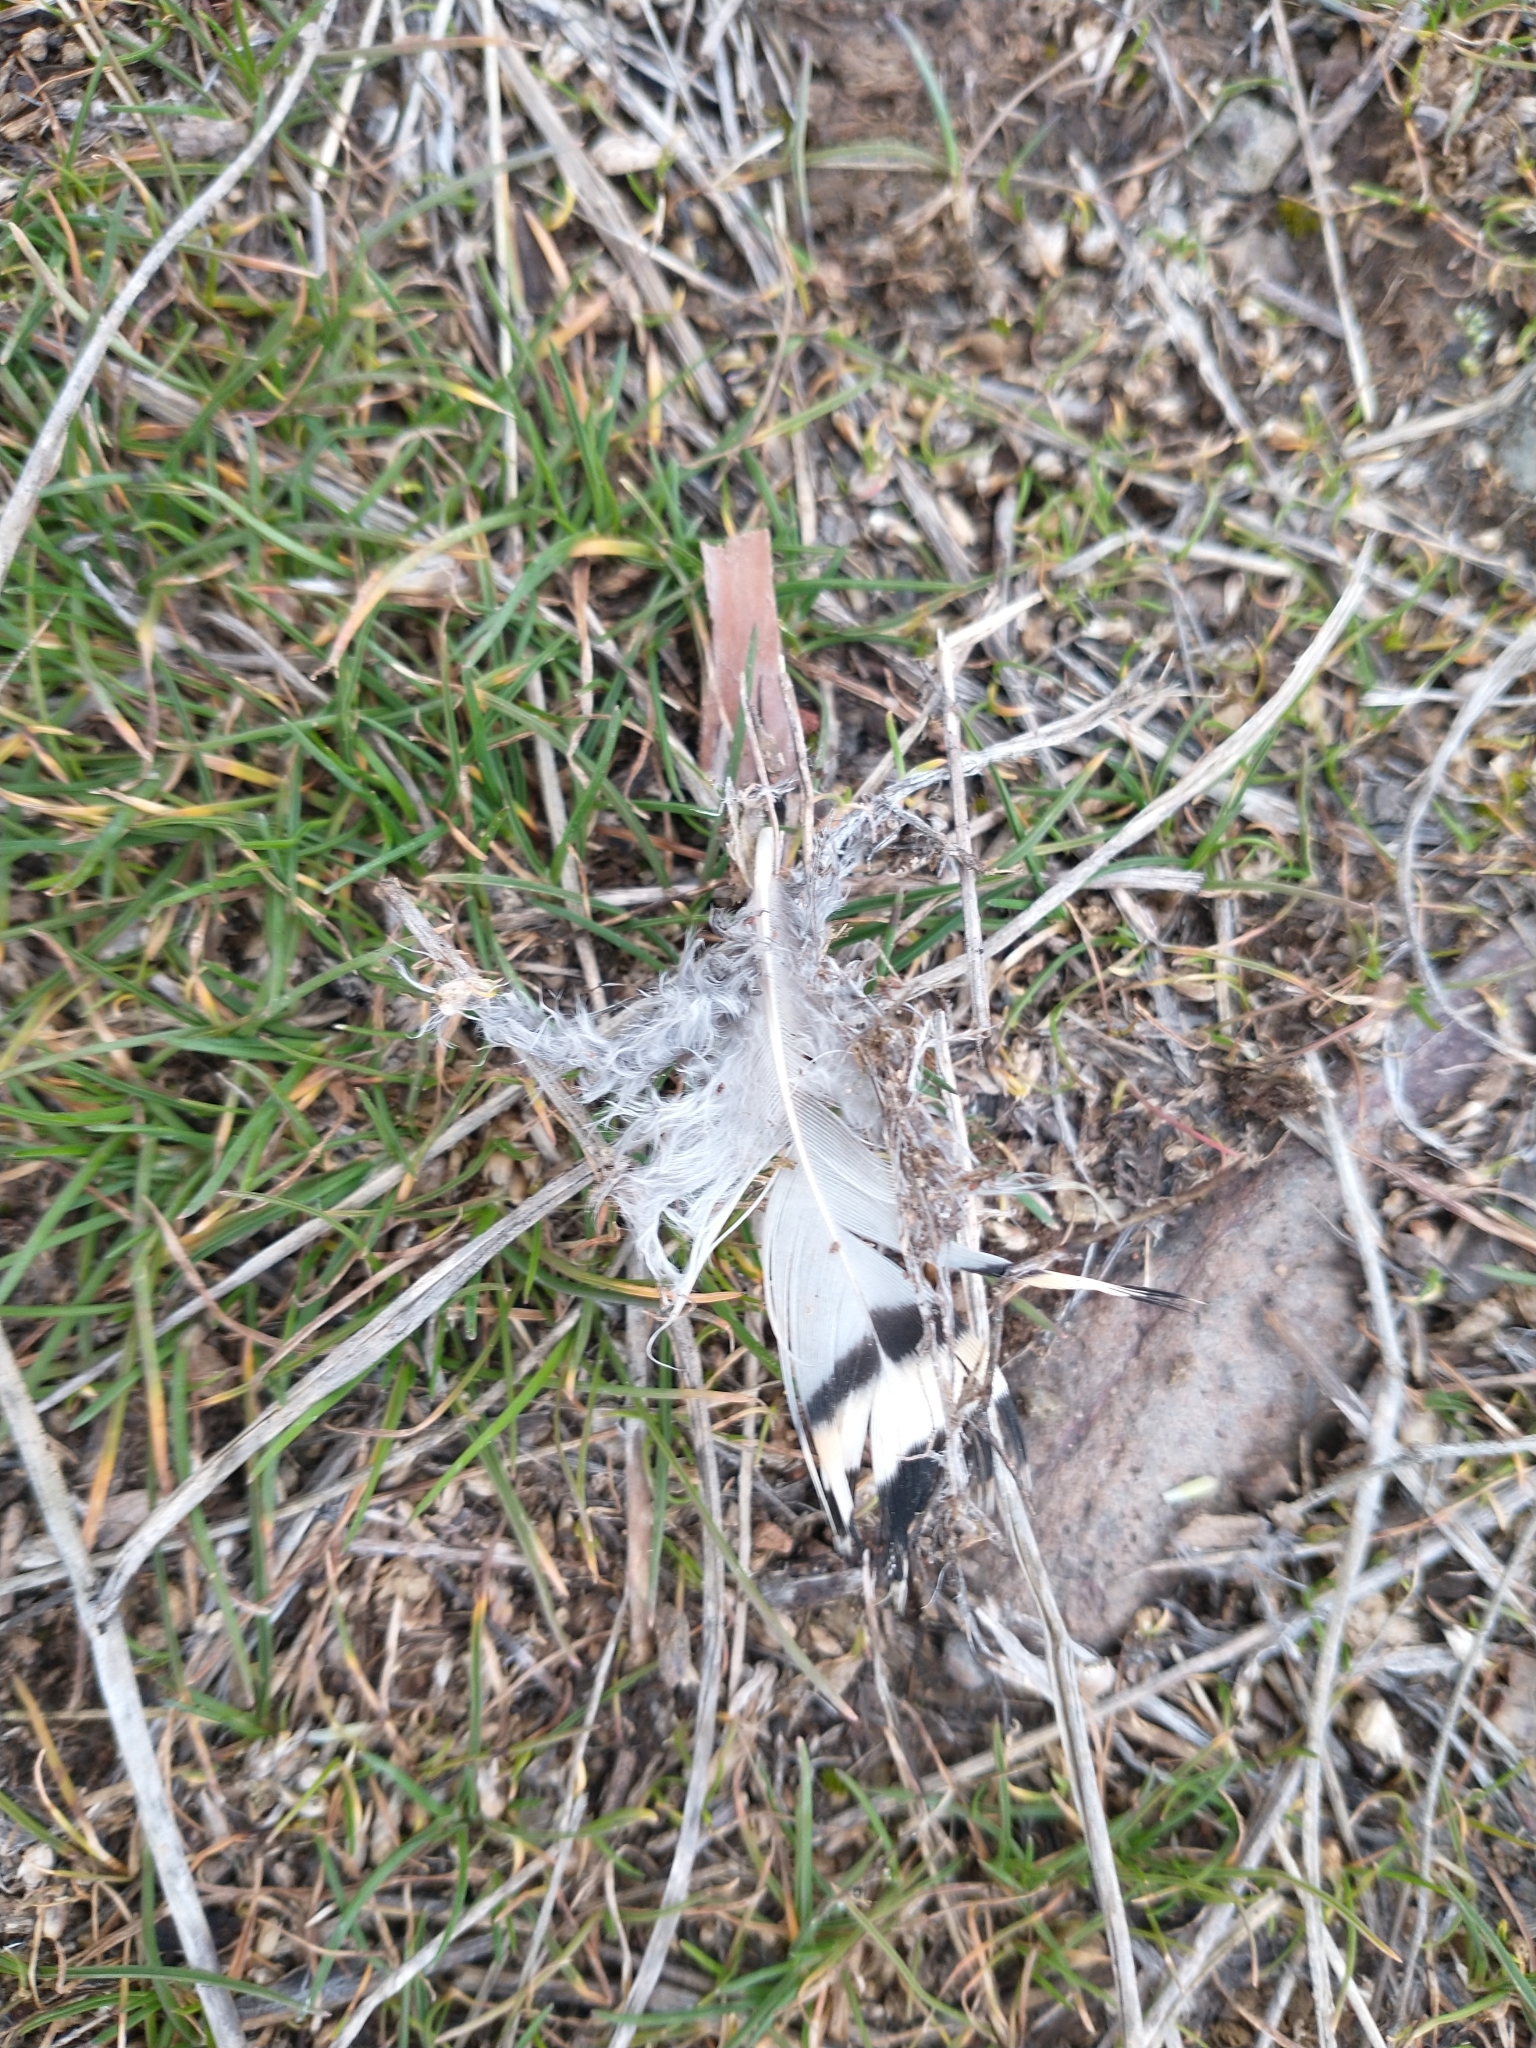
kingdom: Animalia
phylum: Chordata
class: Aves
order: Galliformes
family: Phasianidae
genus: Alectoris
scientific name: Alectoris chukar
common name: Chukar
